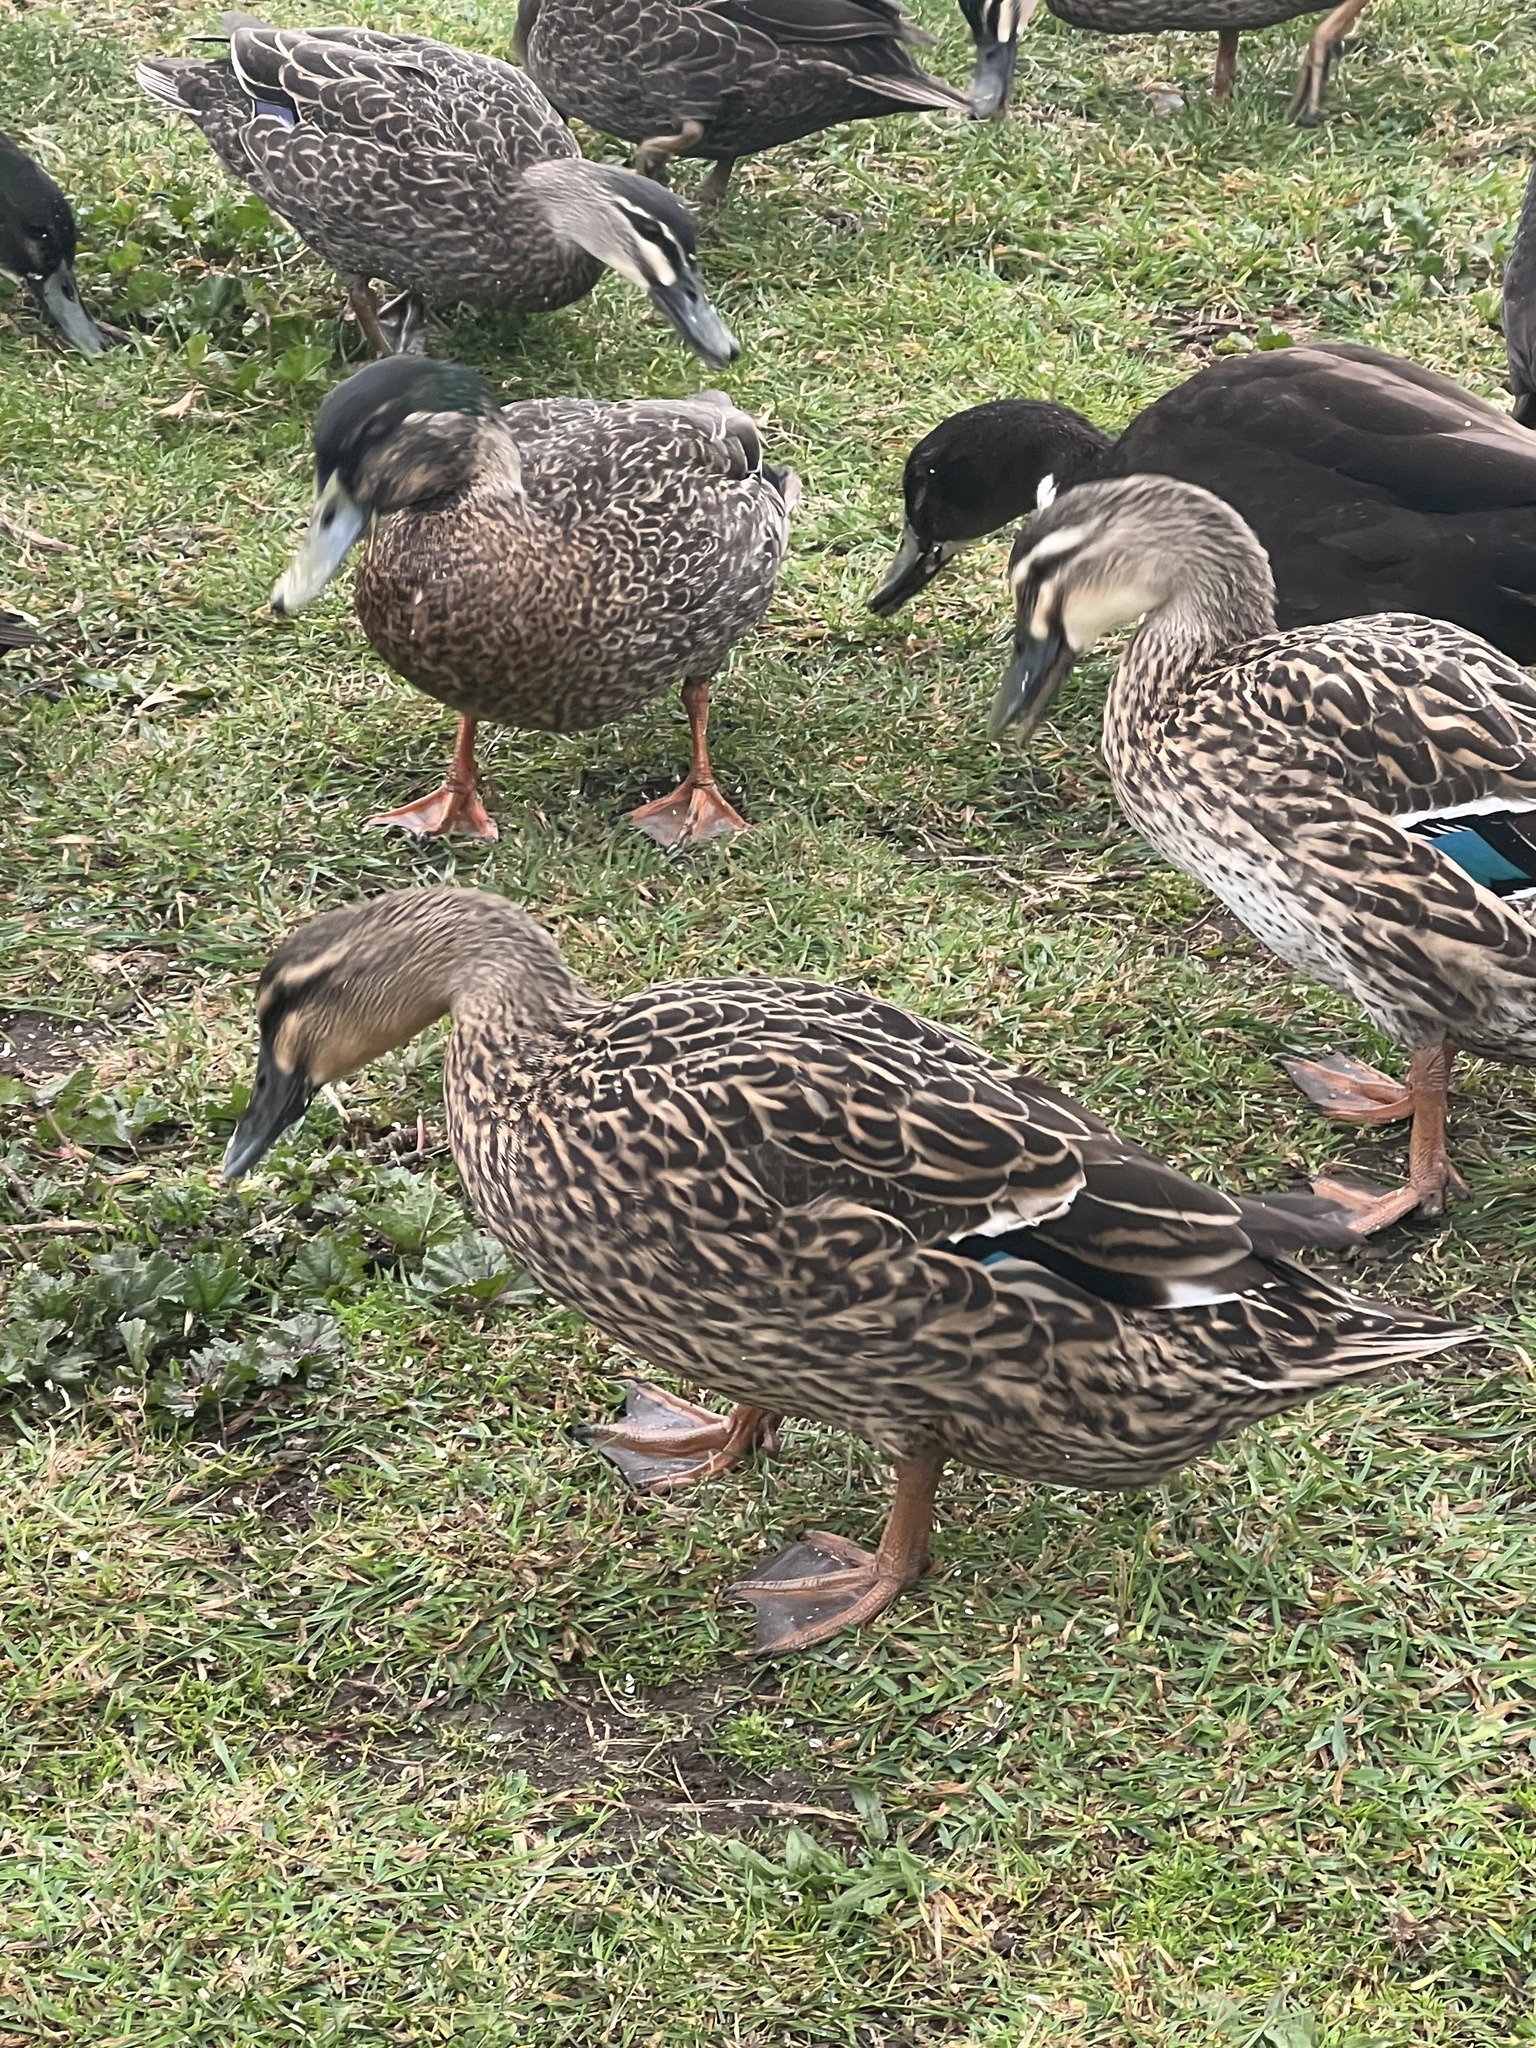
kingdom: Animalia
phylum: Chordata
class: Aves
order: Anseriformes
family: Anatidae
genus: Anas
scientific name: Anas
